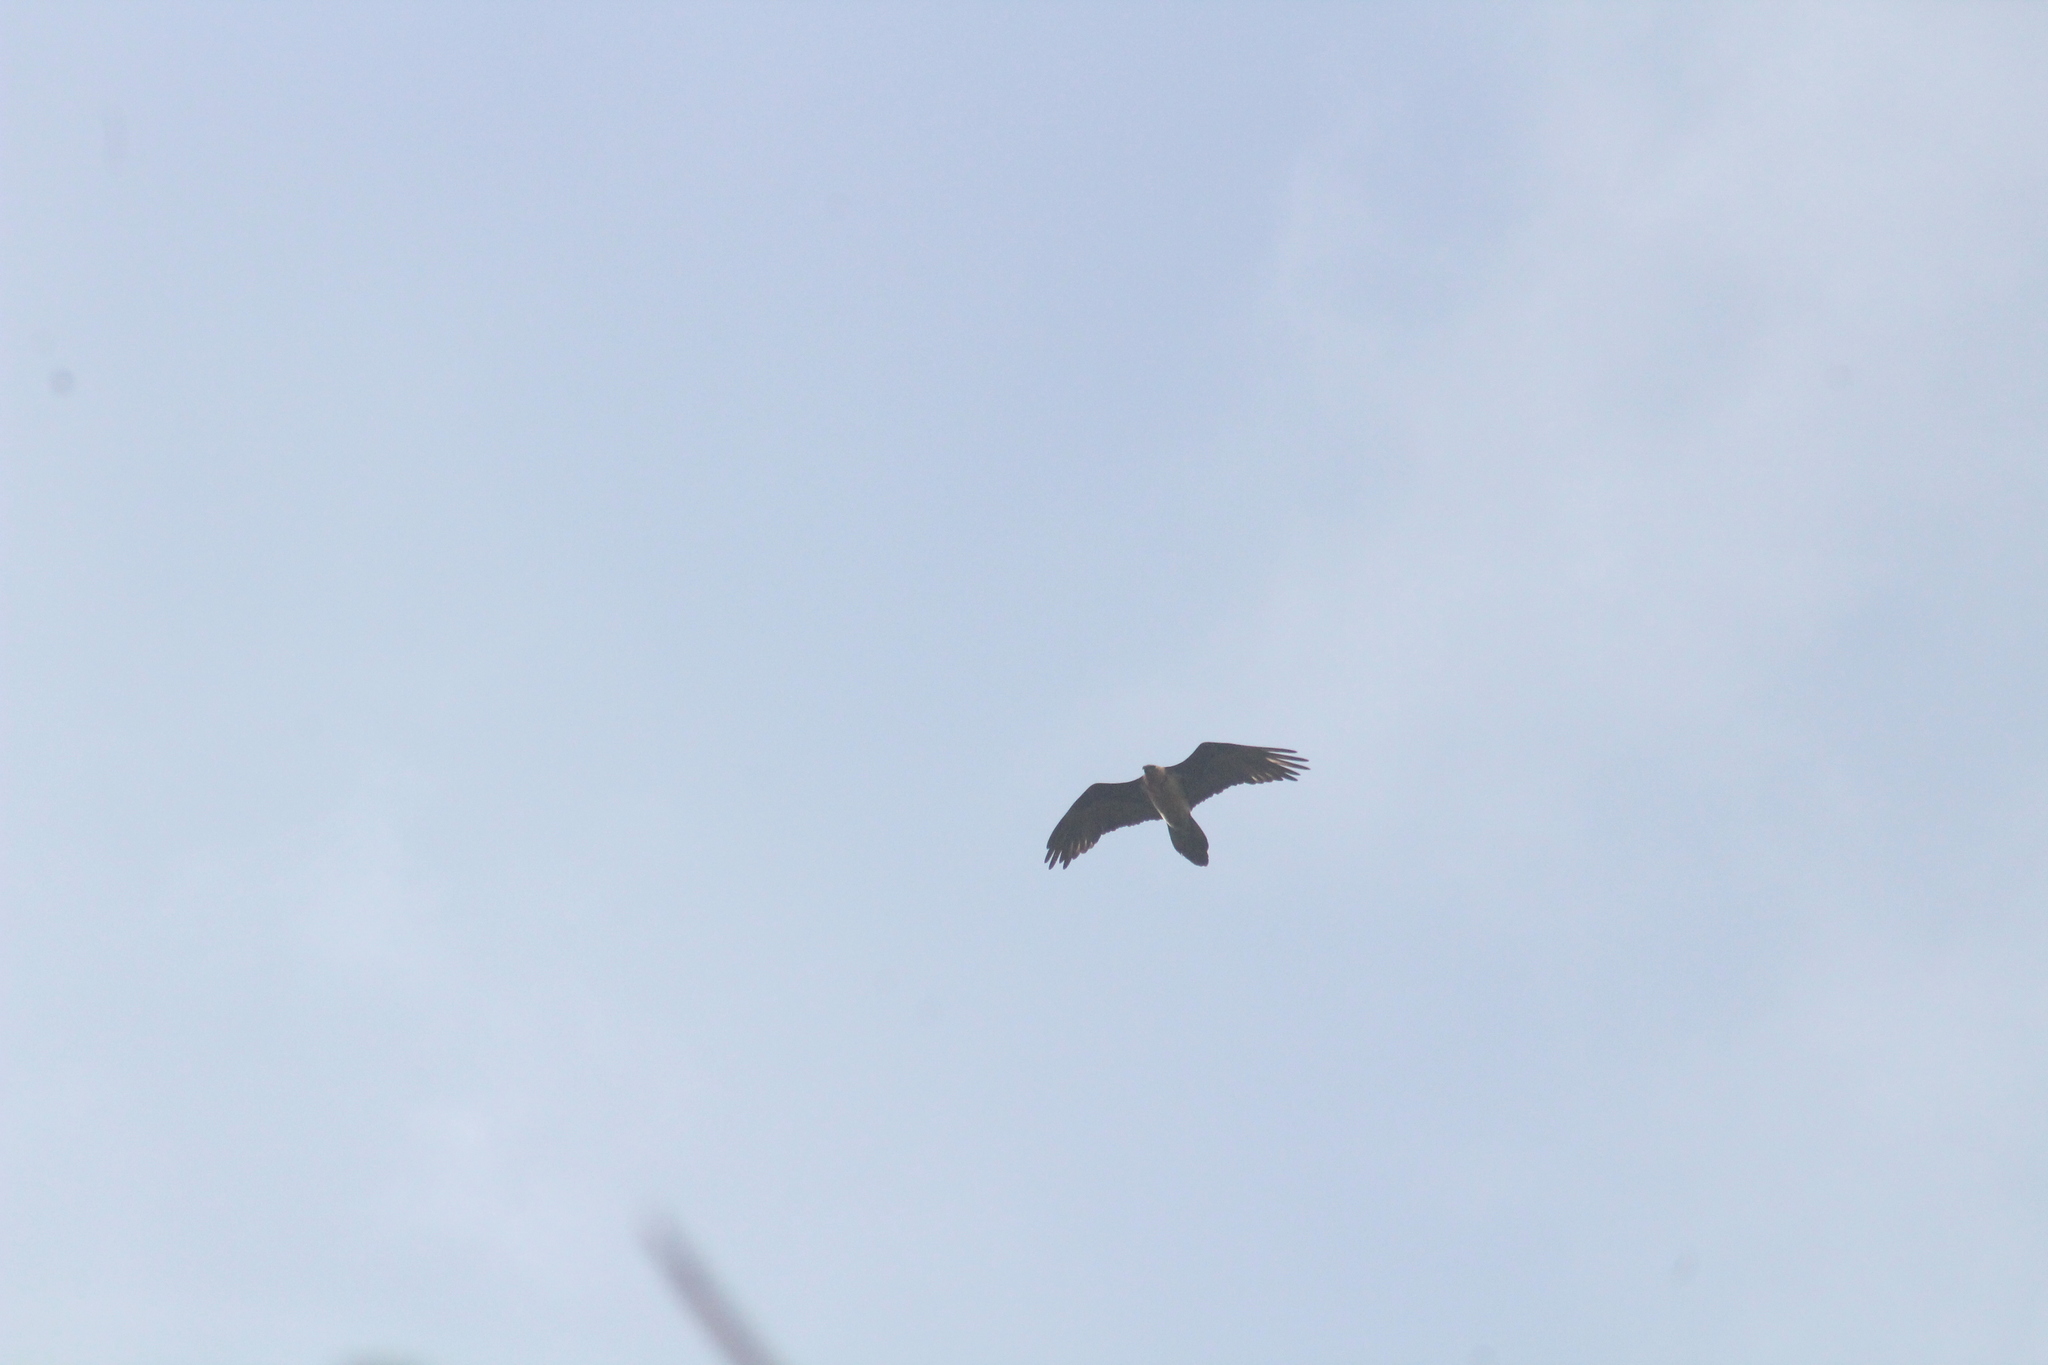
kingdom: Animalia
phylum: Chordata
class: Aves
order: Accipitriformes
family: Accipitridae
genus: Gypaetus
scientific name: Gypaetus barbatus
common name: Bearded vulture
